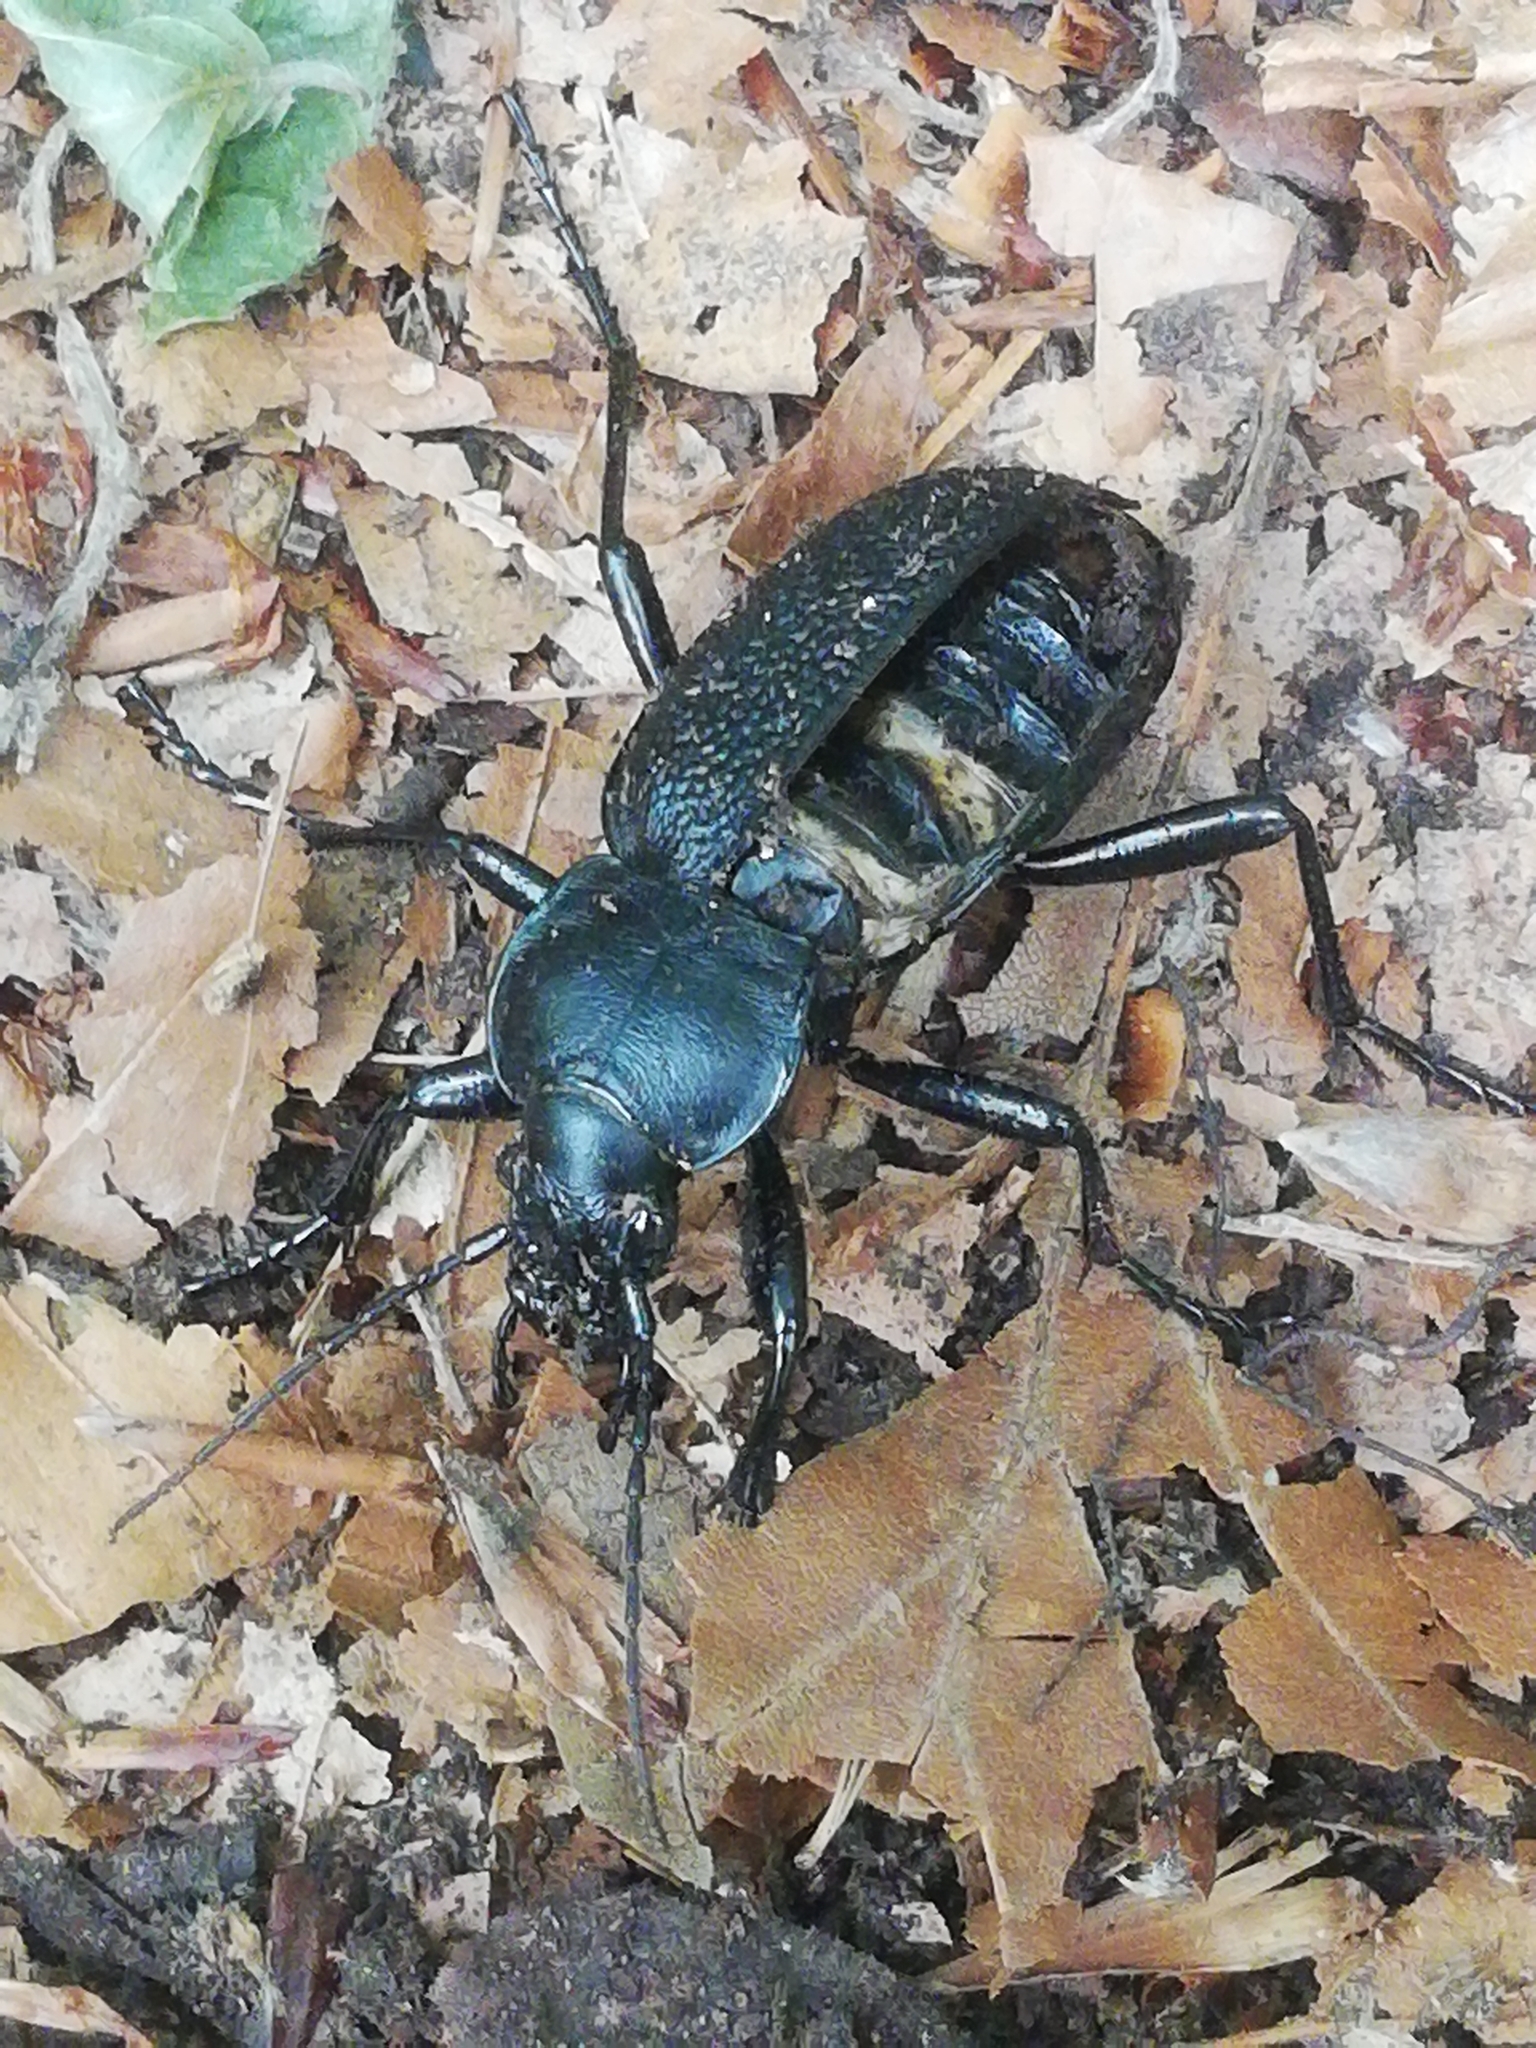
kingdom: Animalia
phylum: Arthropoda
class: Insecta
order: Coleoptera
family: Carabidae
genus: Carabus
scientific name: Carabus coriaceus
